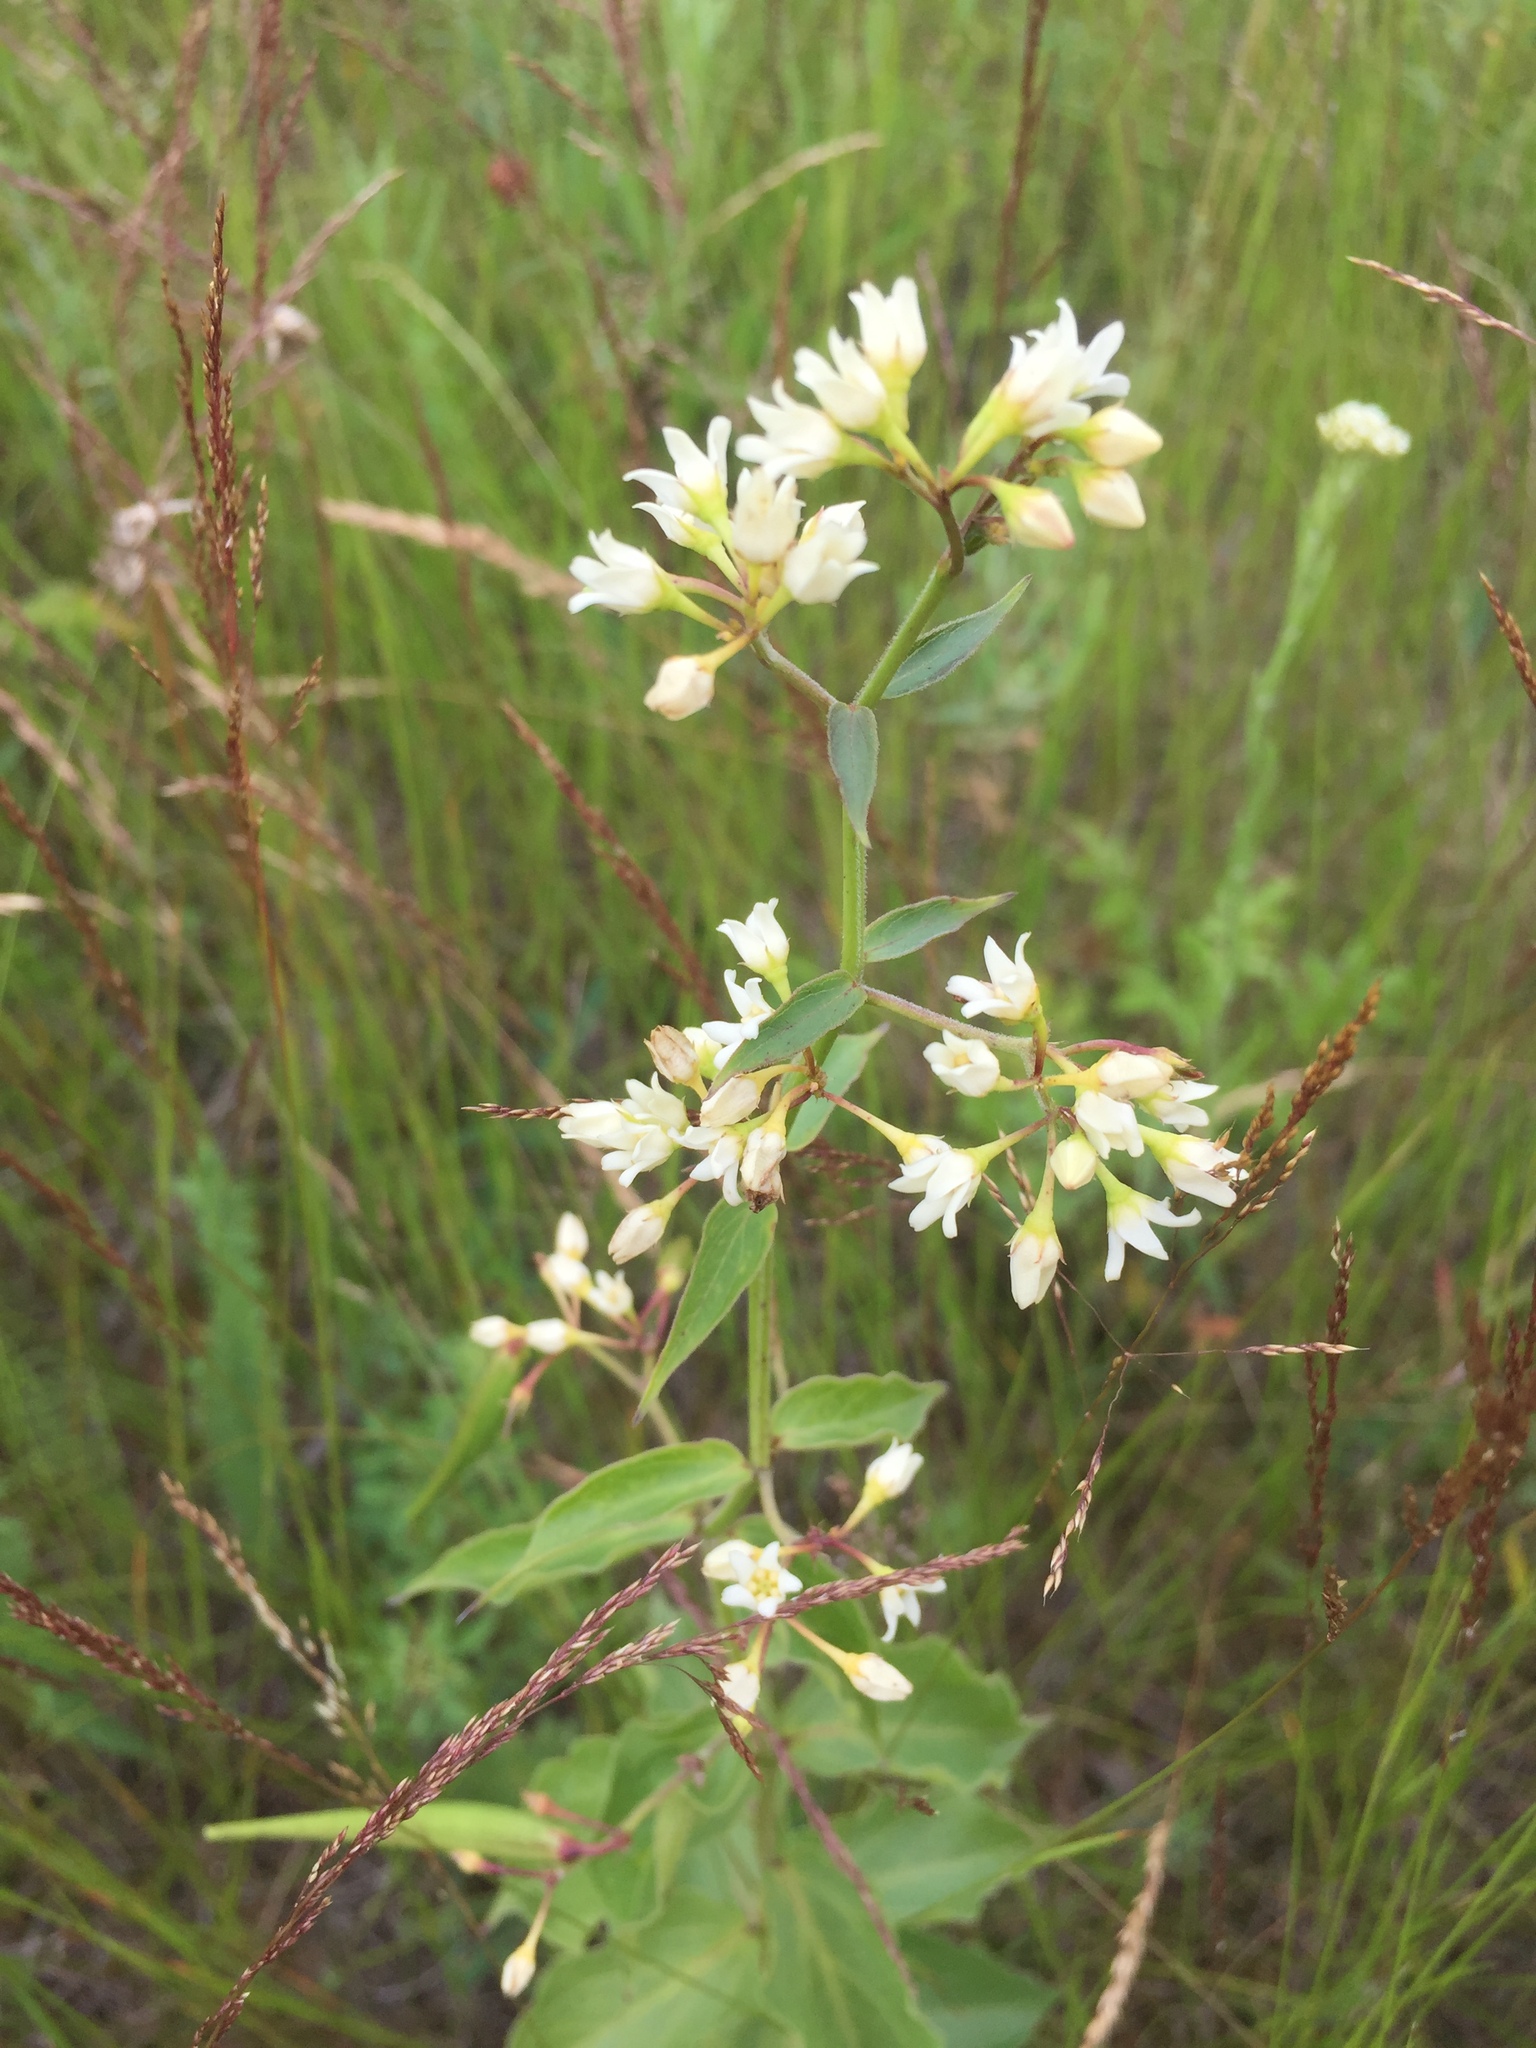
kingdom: Plantae
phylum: Tracheophyta
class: Magnoliopsida
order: Gentianales
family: Apocynaceae
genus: Vincetoxicum
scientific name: Vincetoxicum hirundinaria
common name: White swallowwort
